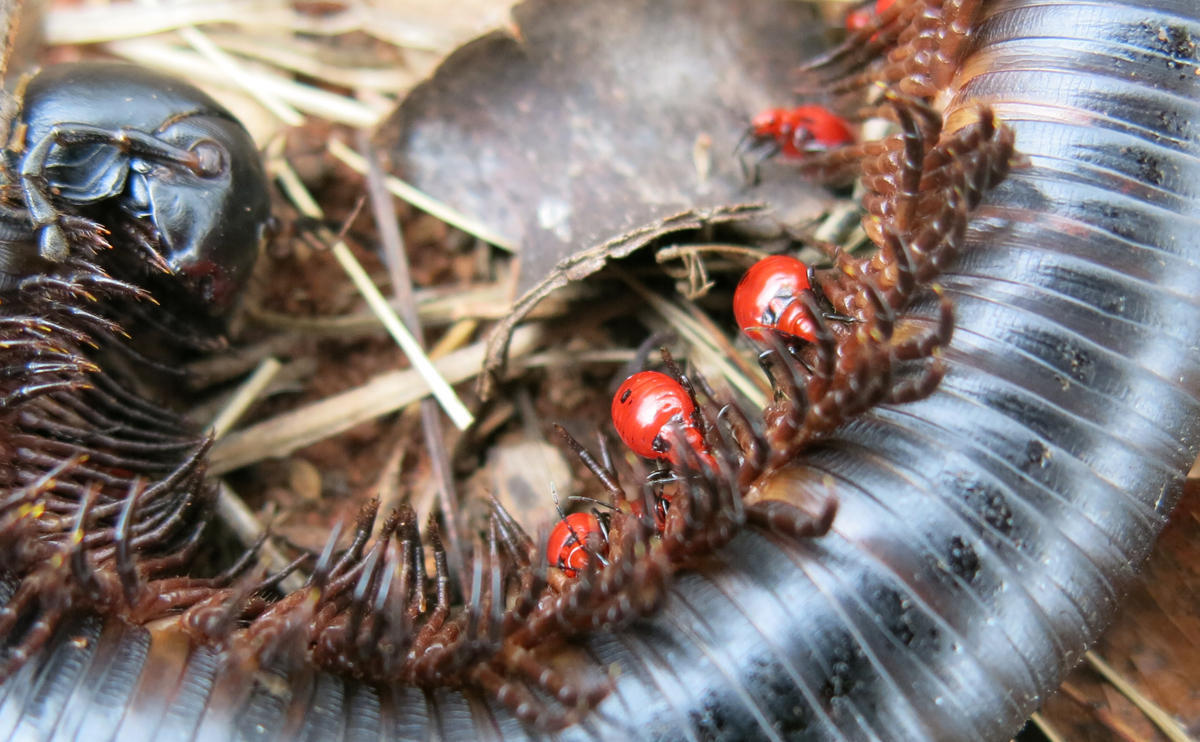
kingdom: Animalia
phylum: Arthropoda
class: Insecta
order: Hemiptera
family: Reduviidae
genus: Ectrichodia
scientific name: Ectrichodia crux
